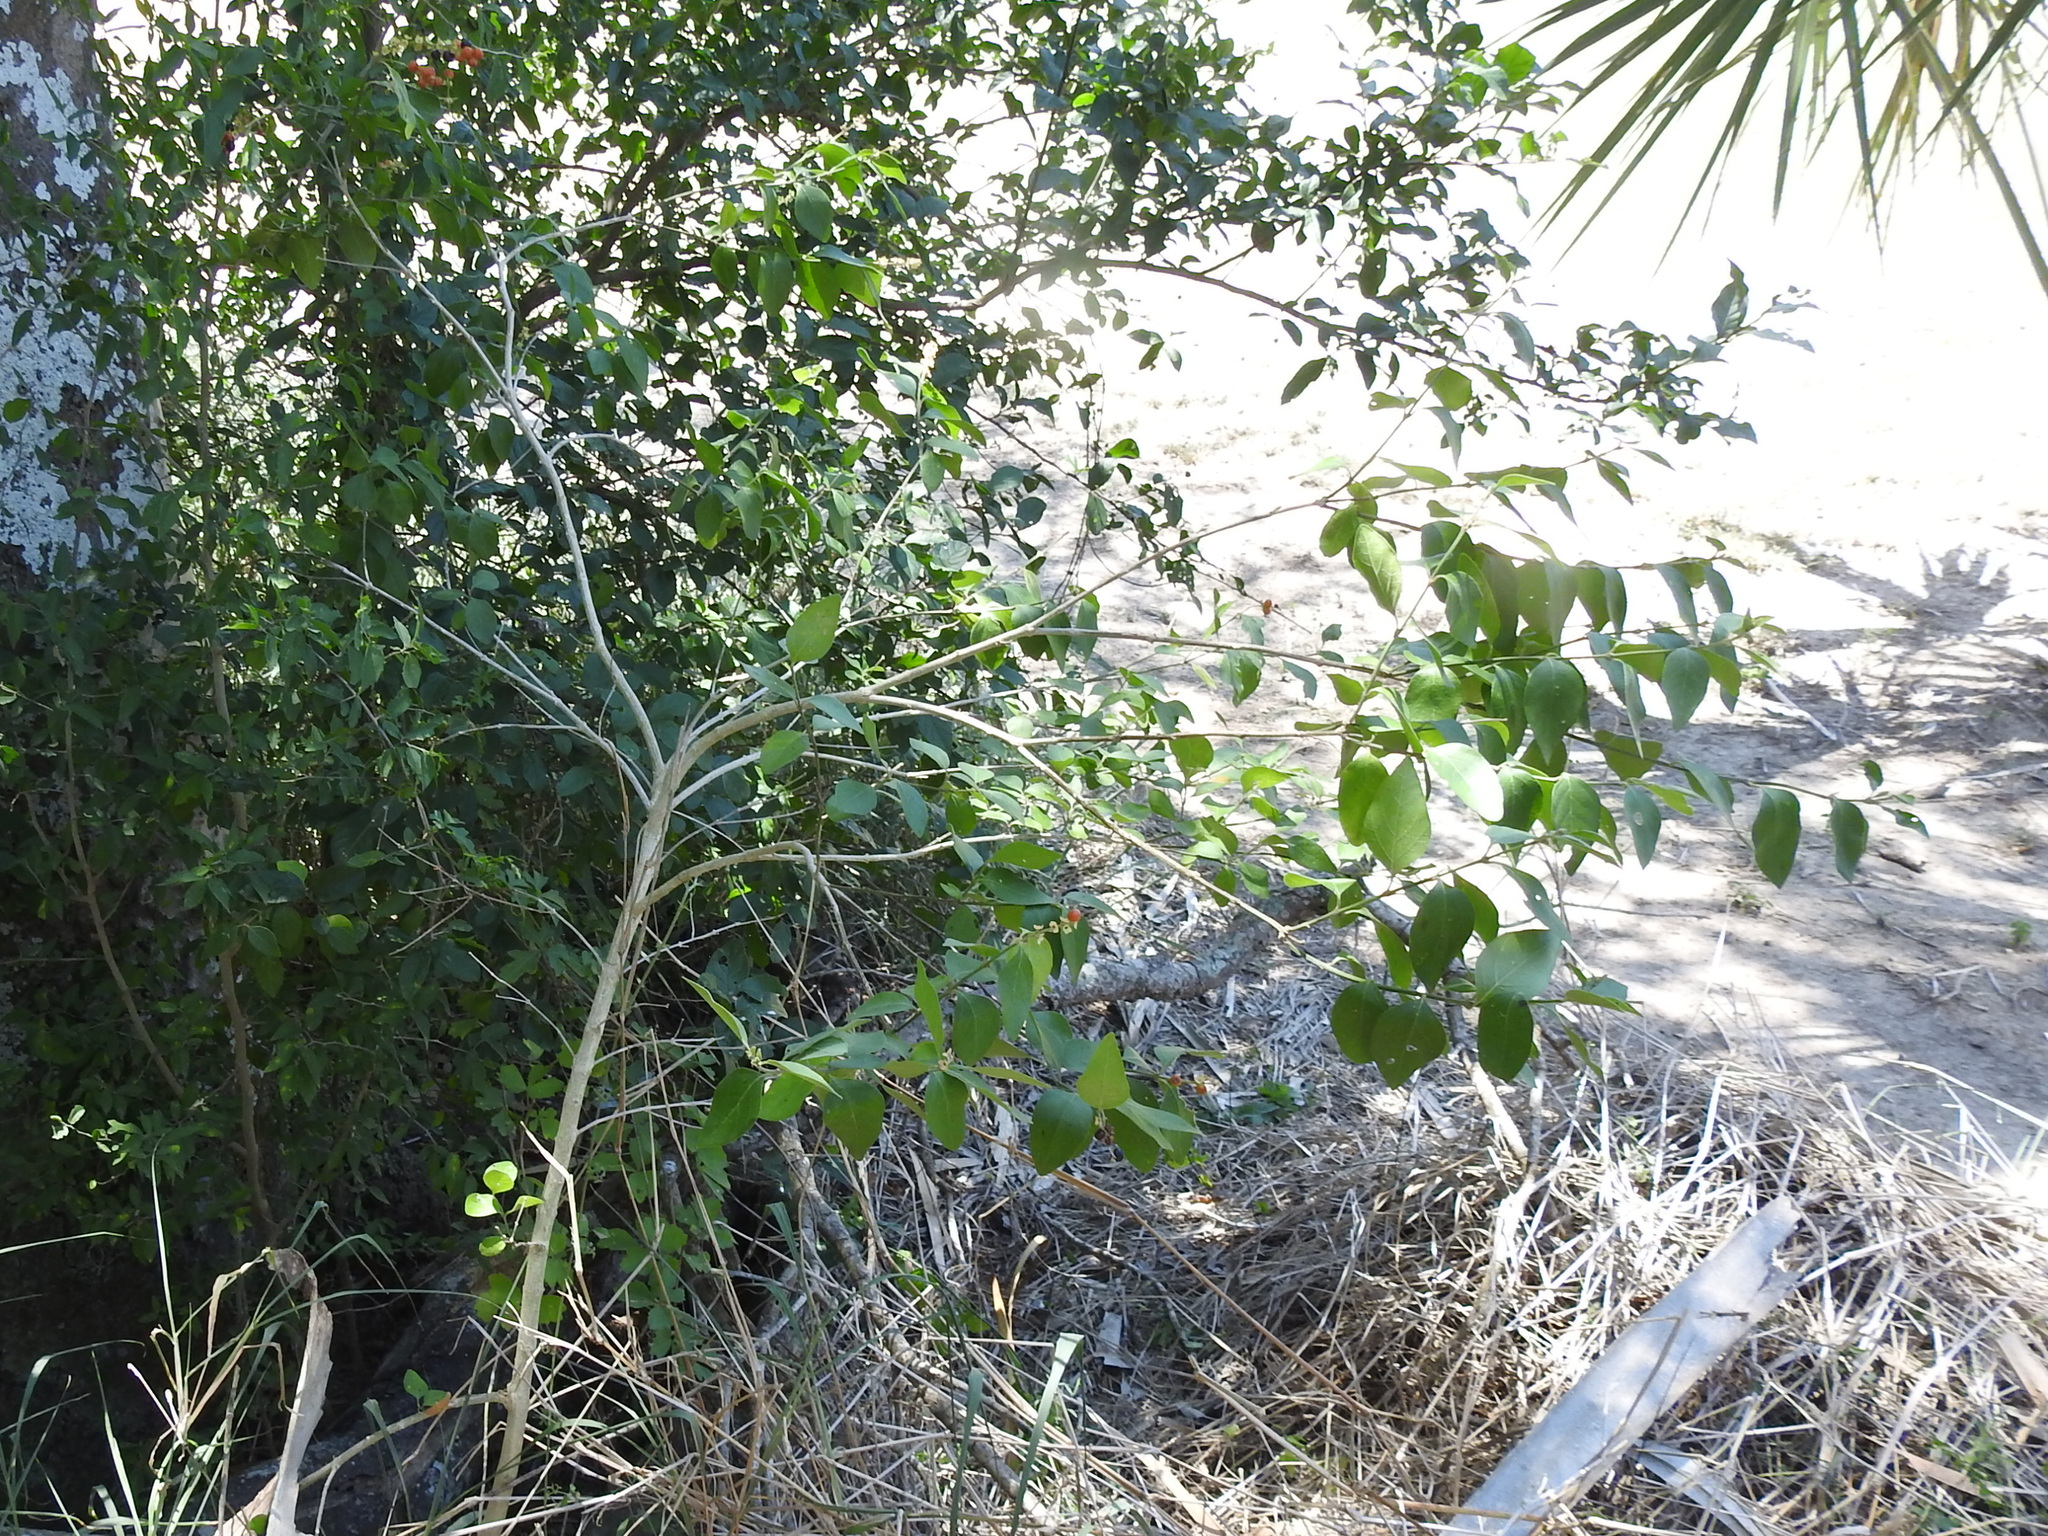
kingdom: Plantae
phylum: Tracheophyta
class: Magnoliopsida
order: Lamiales
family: Verbenaceae
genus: Citharexylum
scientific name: Citharexylum berlandieri
